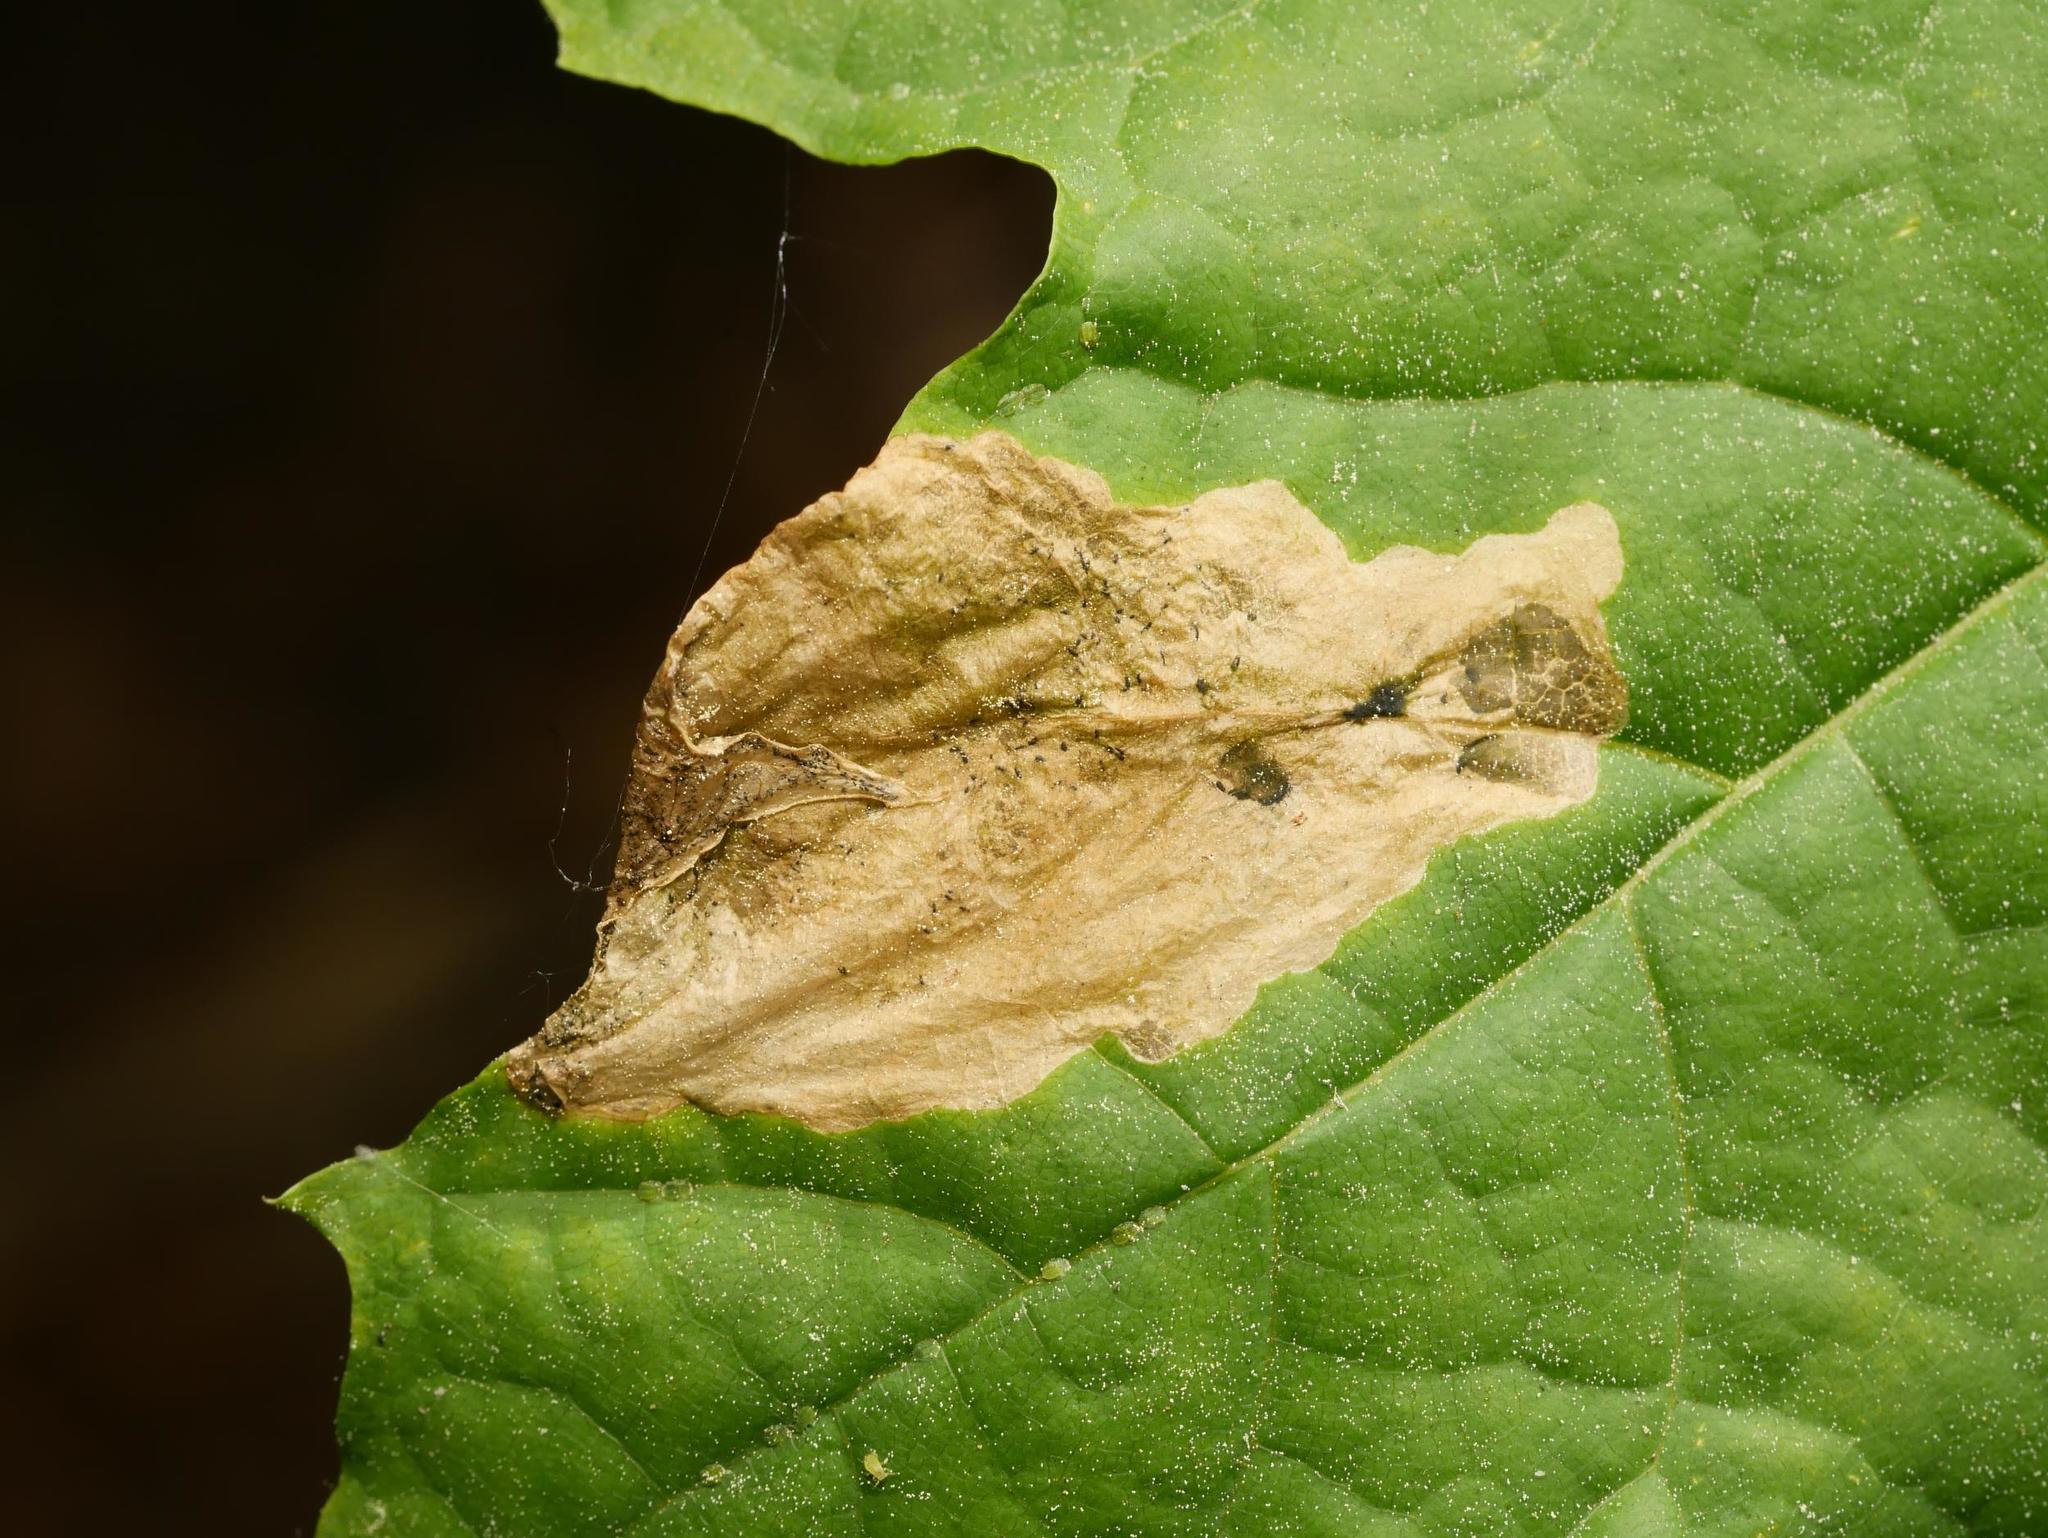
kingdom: Animalia
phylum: Arthropoda
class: Insecta
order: Hymenoptera
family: Tenthredinidae
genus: Hinatara
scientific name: Hinatara recta
